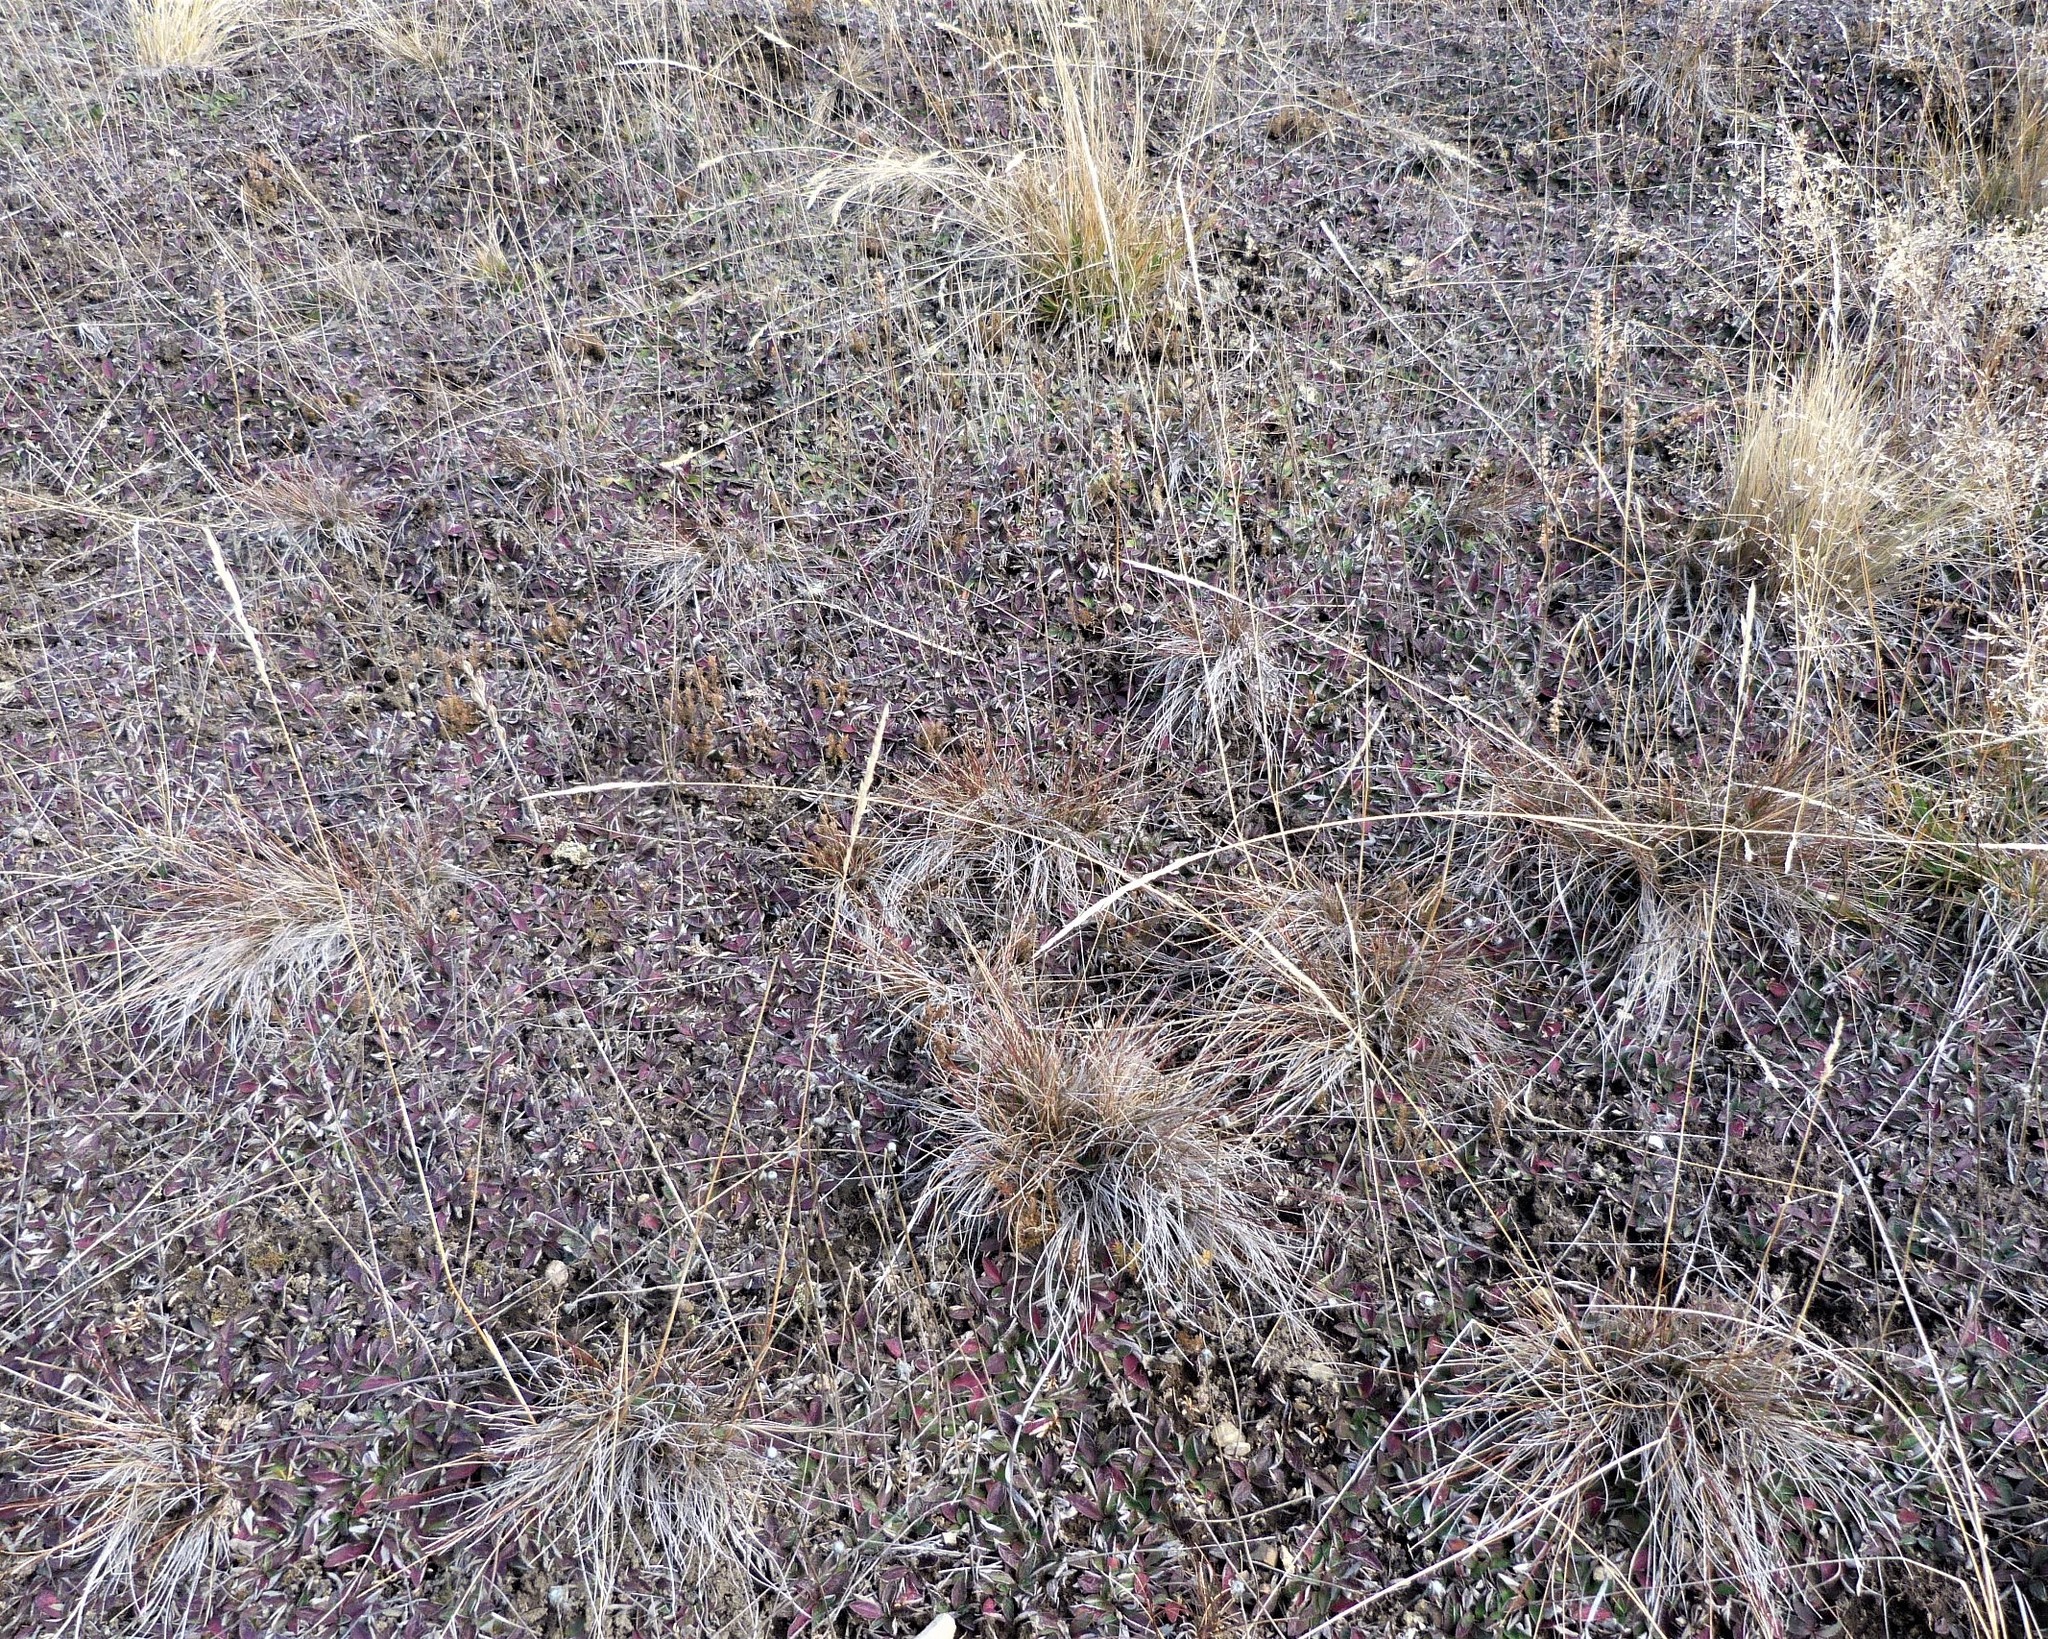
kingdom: Plantae
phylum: Tracheophyta
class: Liliopsida
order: Poales
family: Poaceae
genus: Calamagrostis
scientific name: Calamagrostis avenoides
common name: Mountain oat grass
